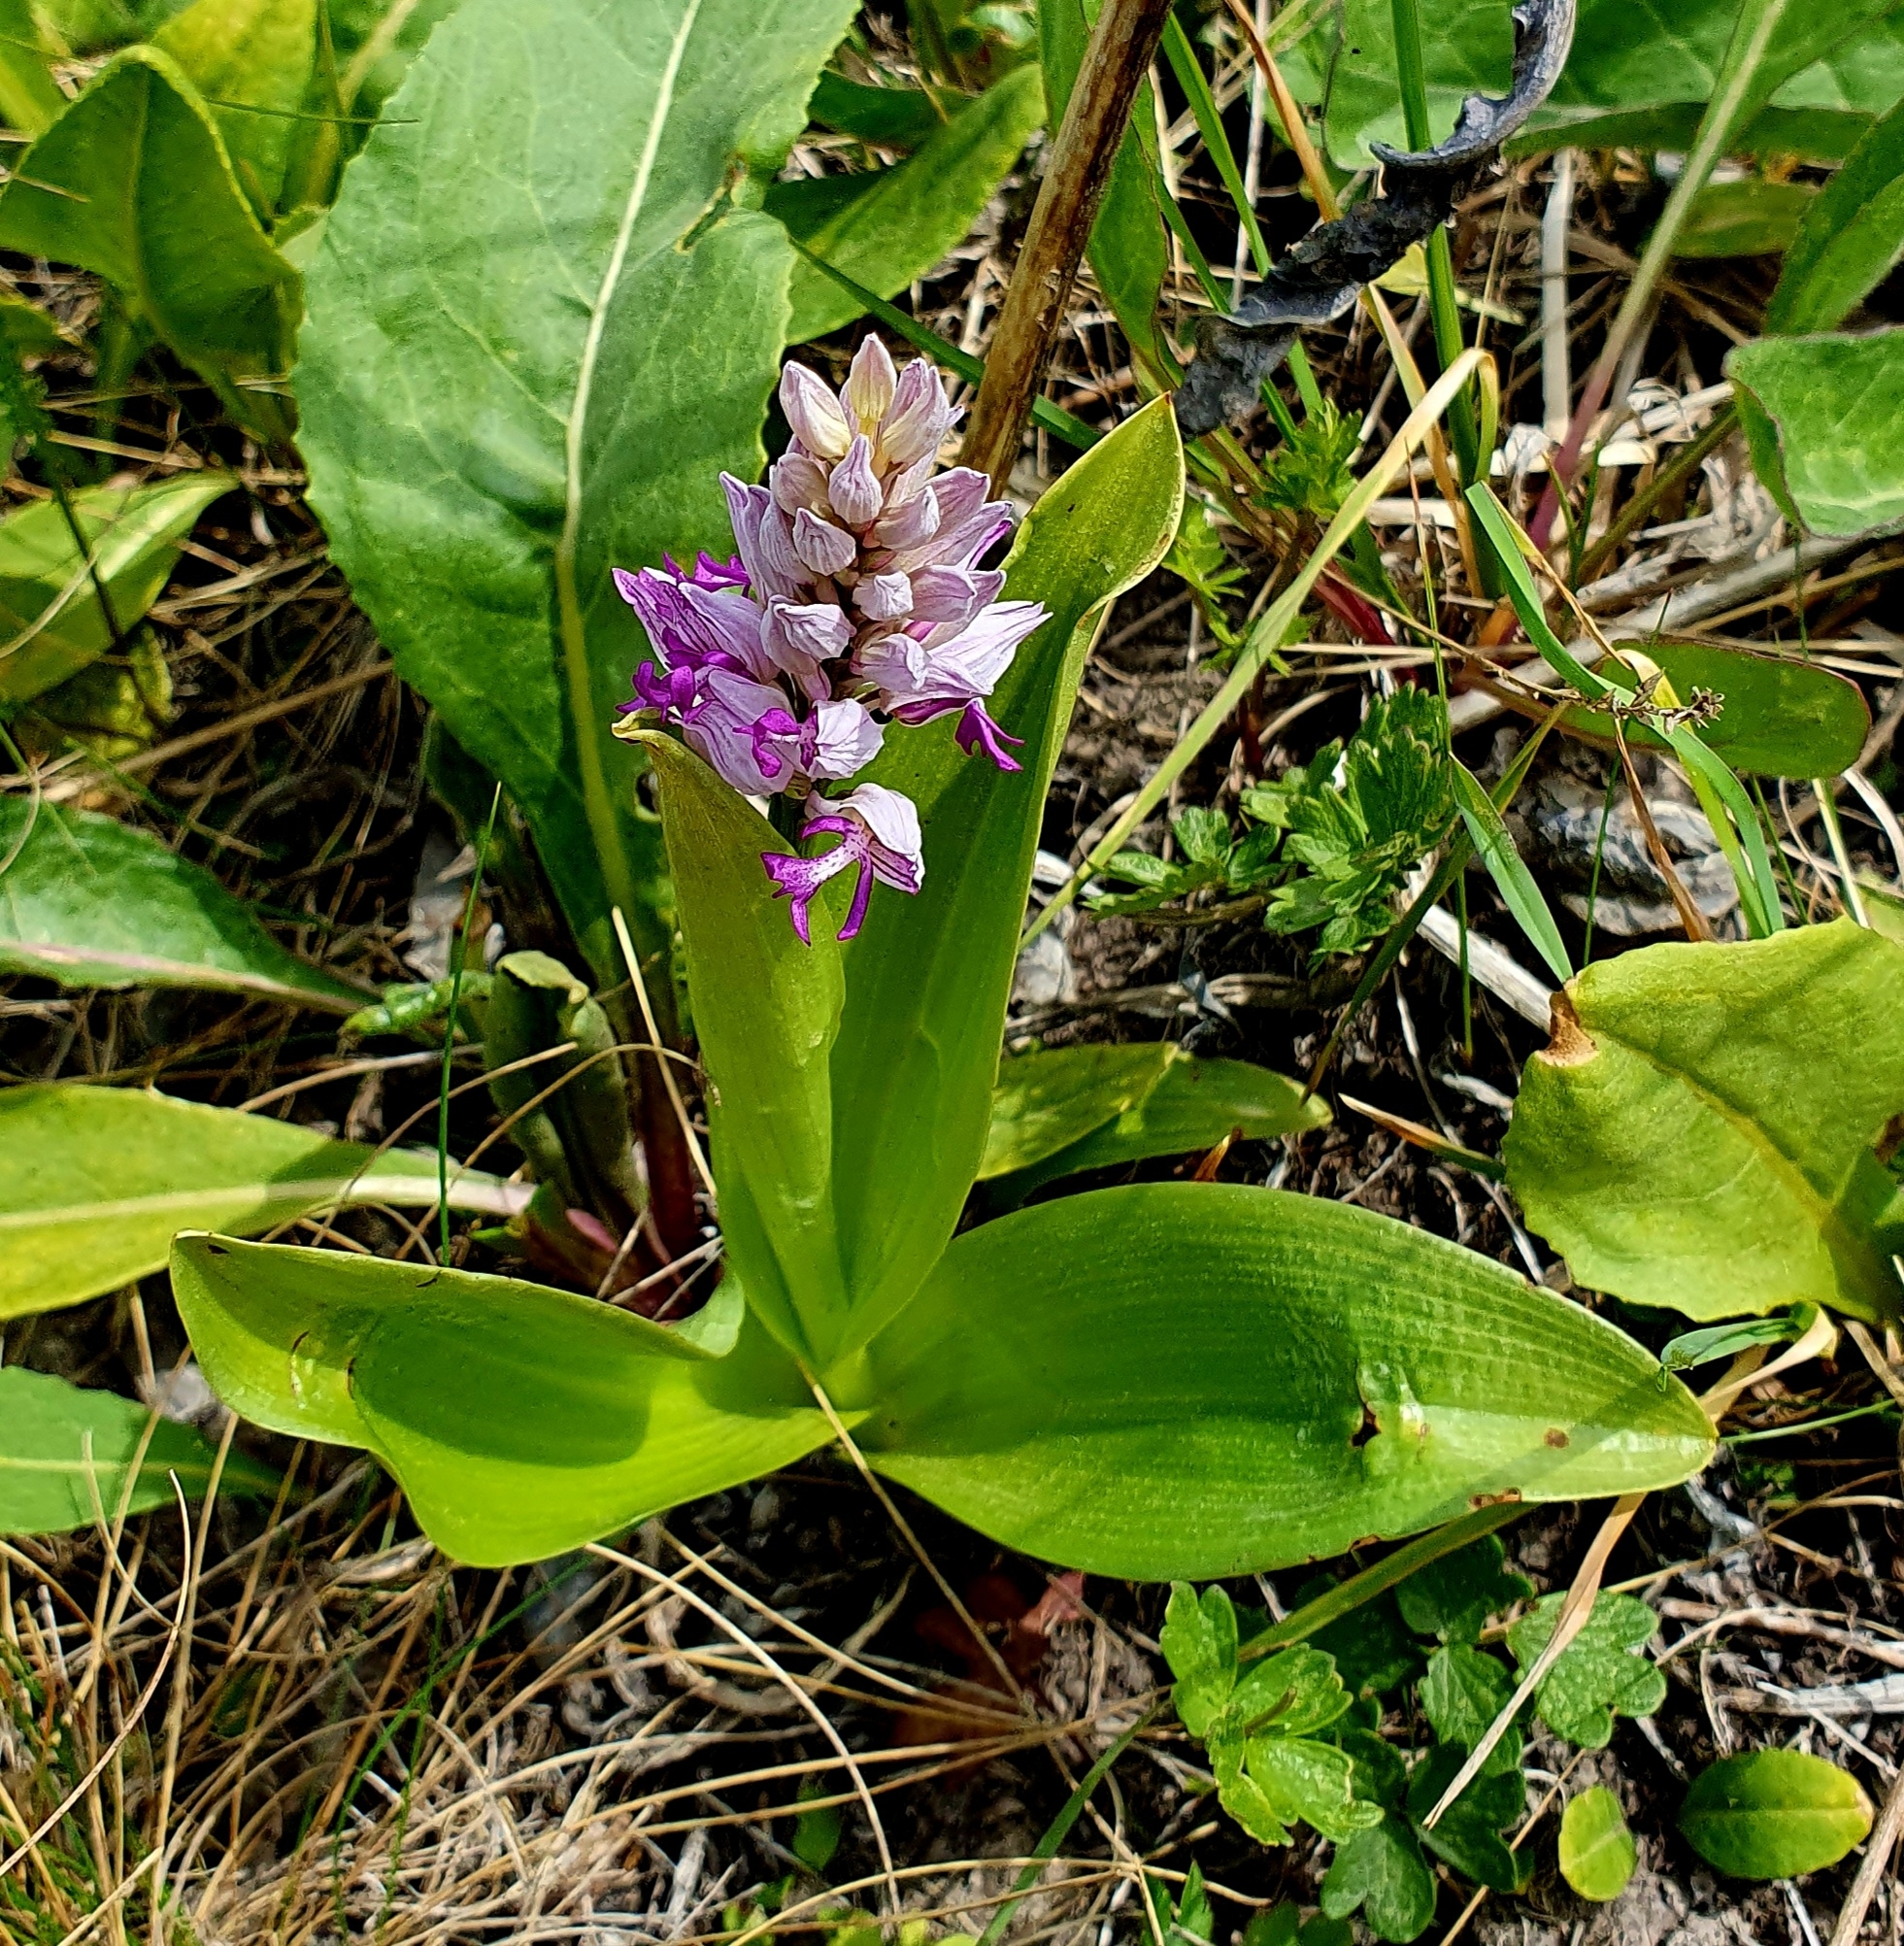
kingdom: Plantae
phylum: Tracheophyta
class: Liliopsida
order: Asparagales
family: Orchidaceae
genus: Orchis
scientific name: Orchis militaris
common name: Military orchid
